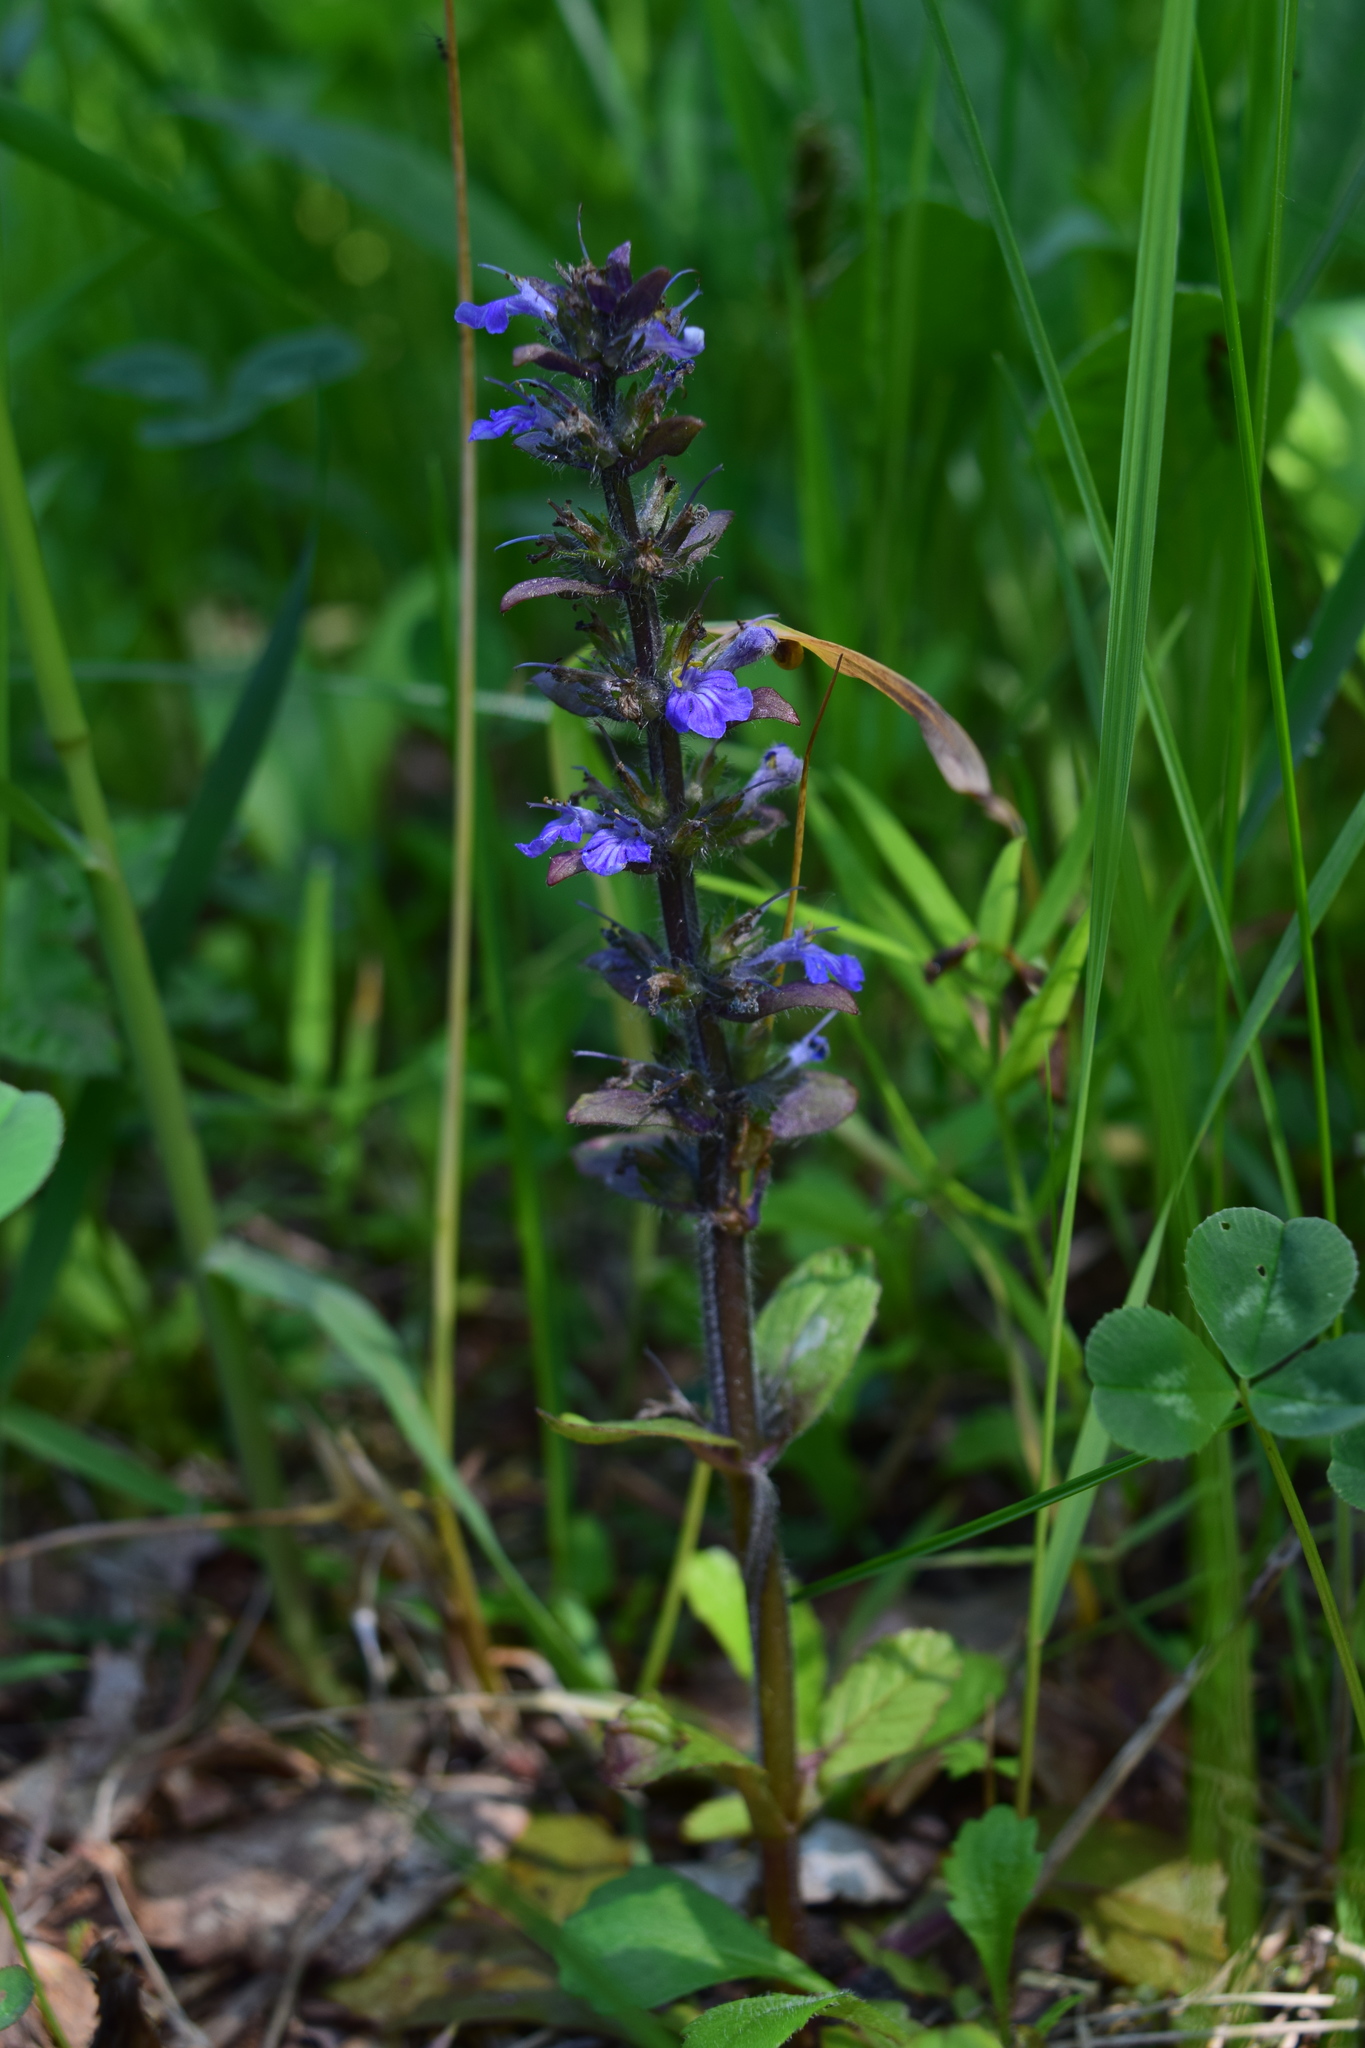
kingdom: Plantae
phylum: Tracheophyta
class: Magnoliopsida
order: Lamiales
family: Lamiaceae
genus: Ajuga
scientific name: Ajuga reptans
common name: Bugle
